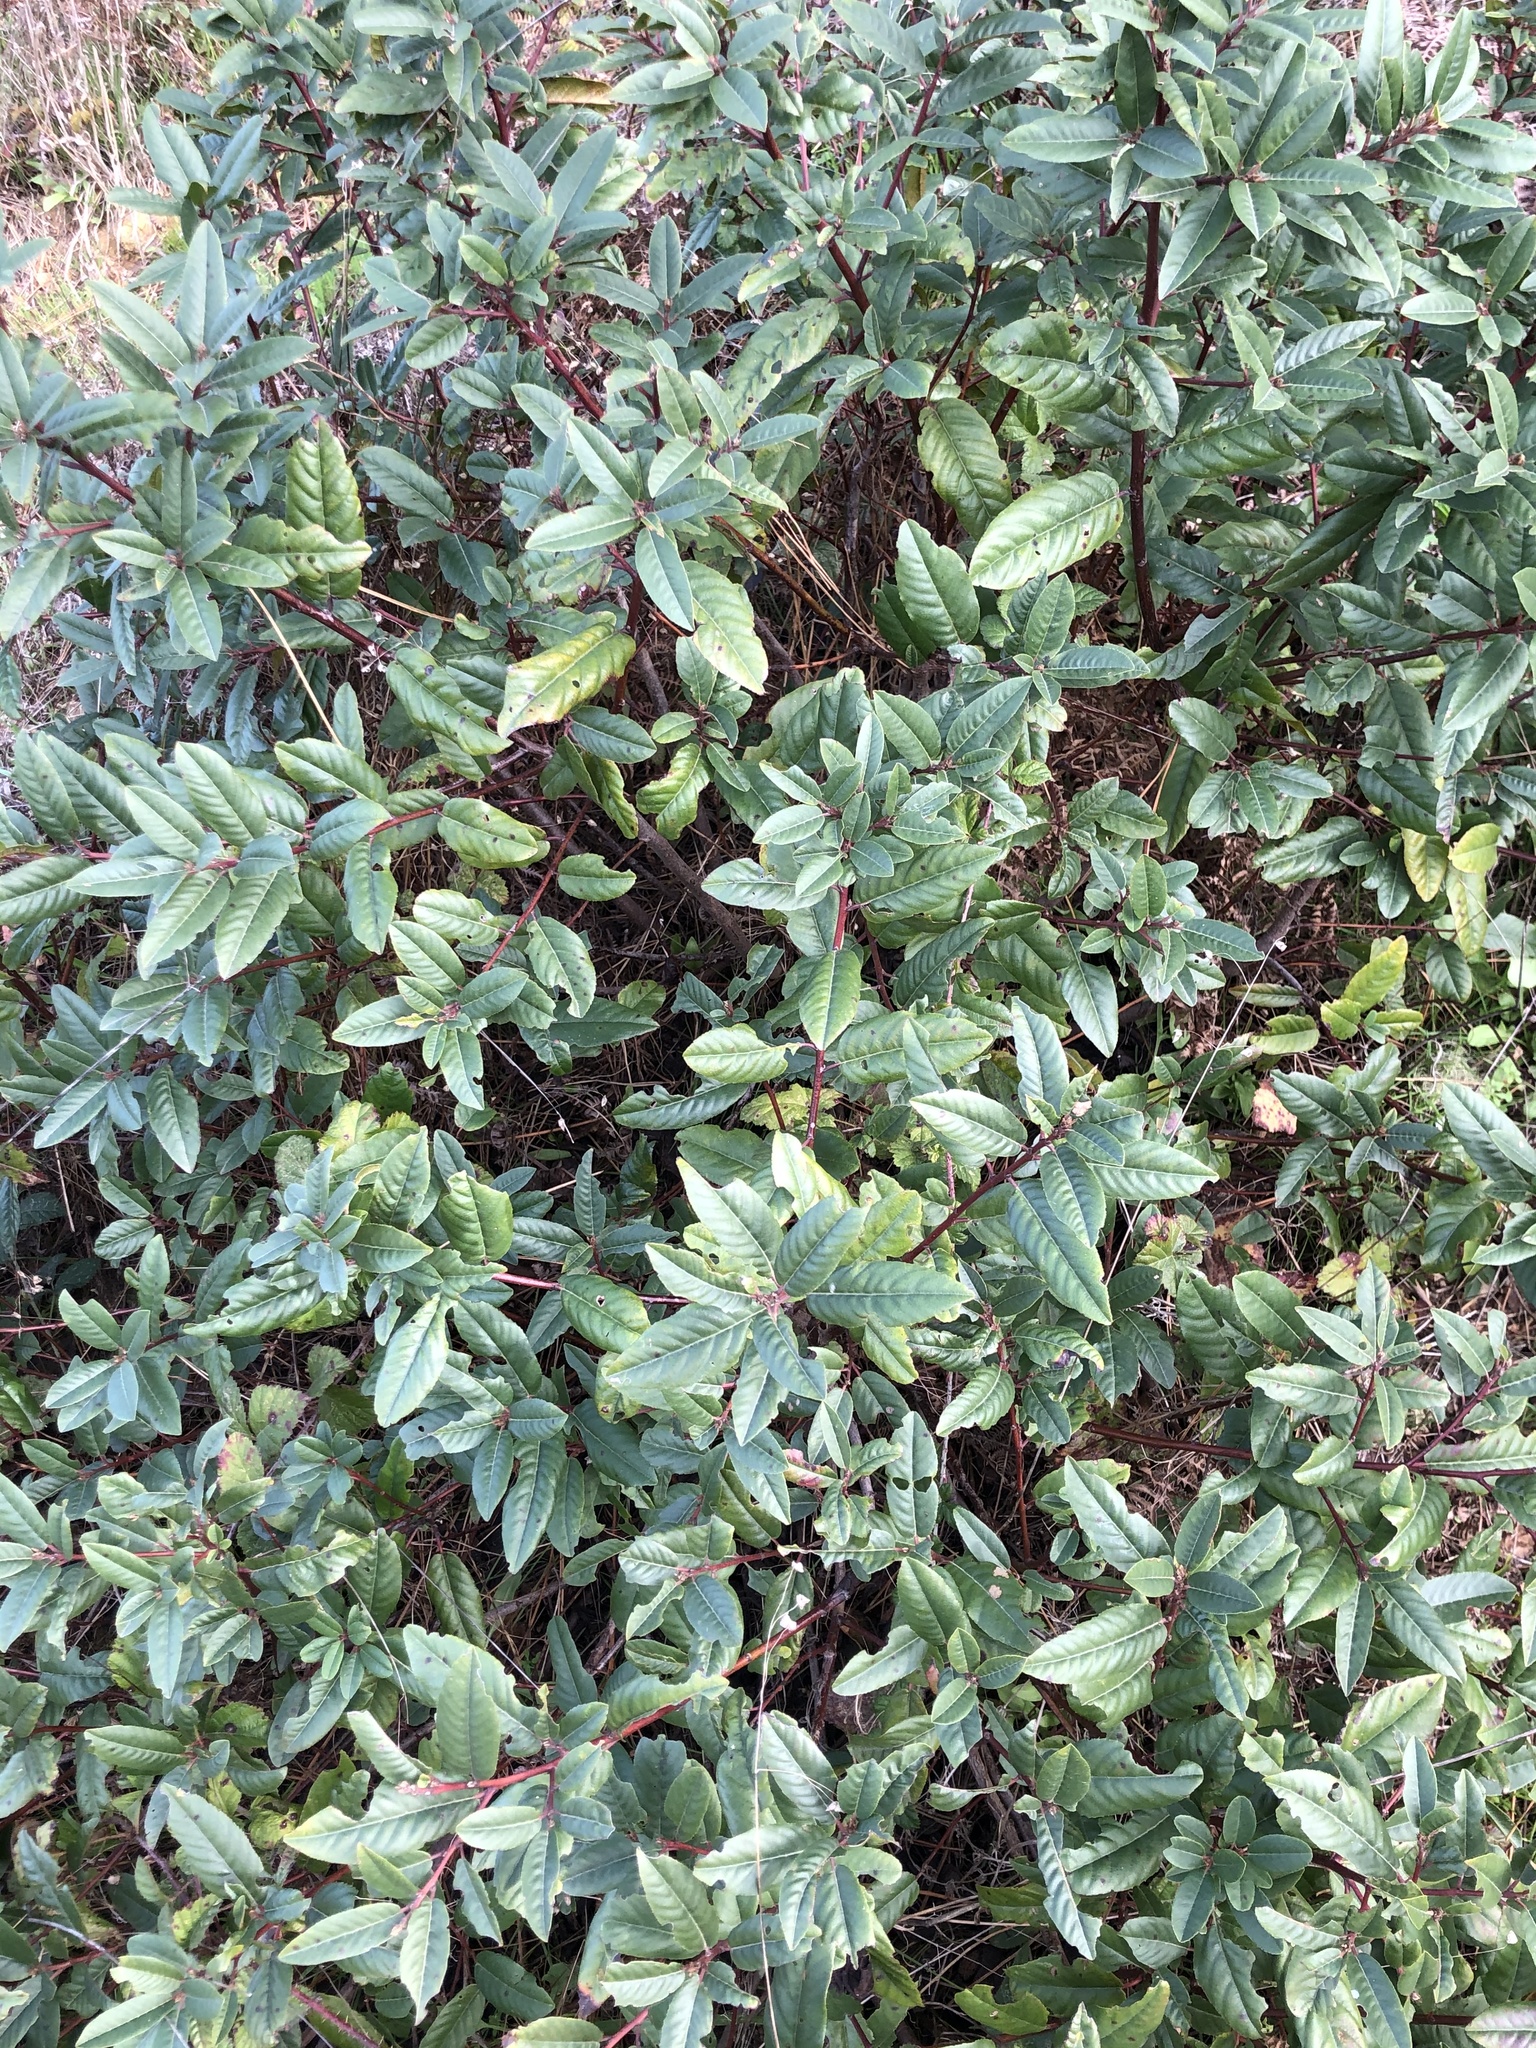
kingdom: Plantae
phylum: Tracheophyta
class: Magnoliopsida
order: Rosales
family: Rhamnaceae
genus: Frangula
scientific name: Frangula californica
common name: California buckthorn
